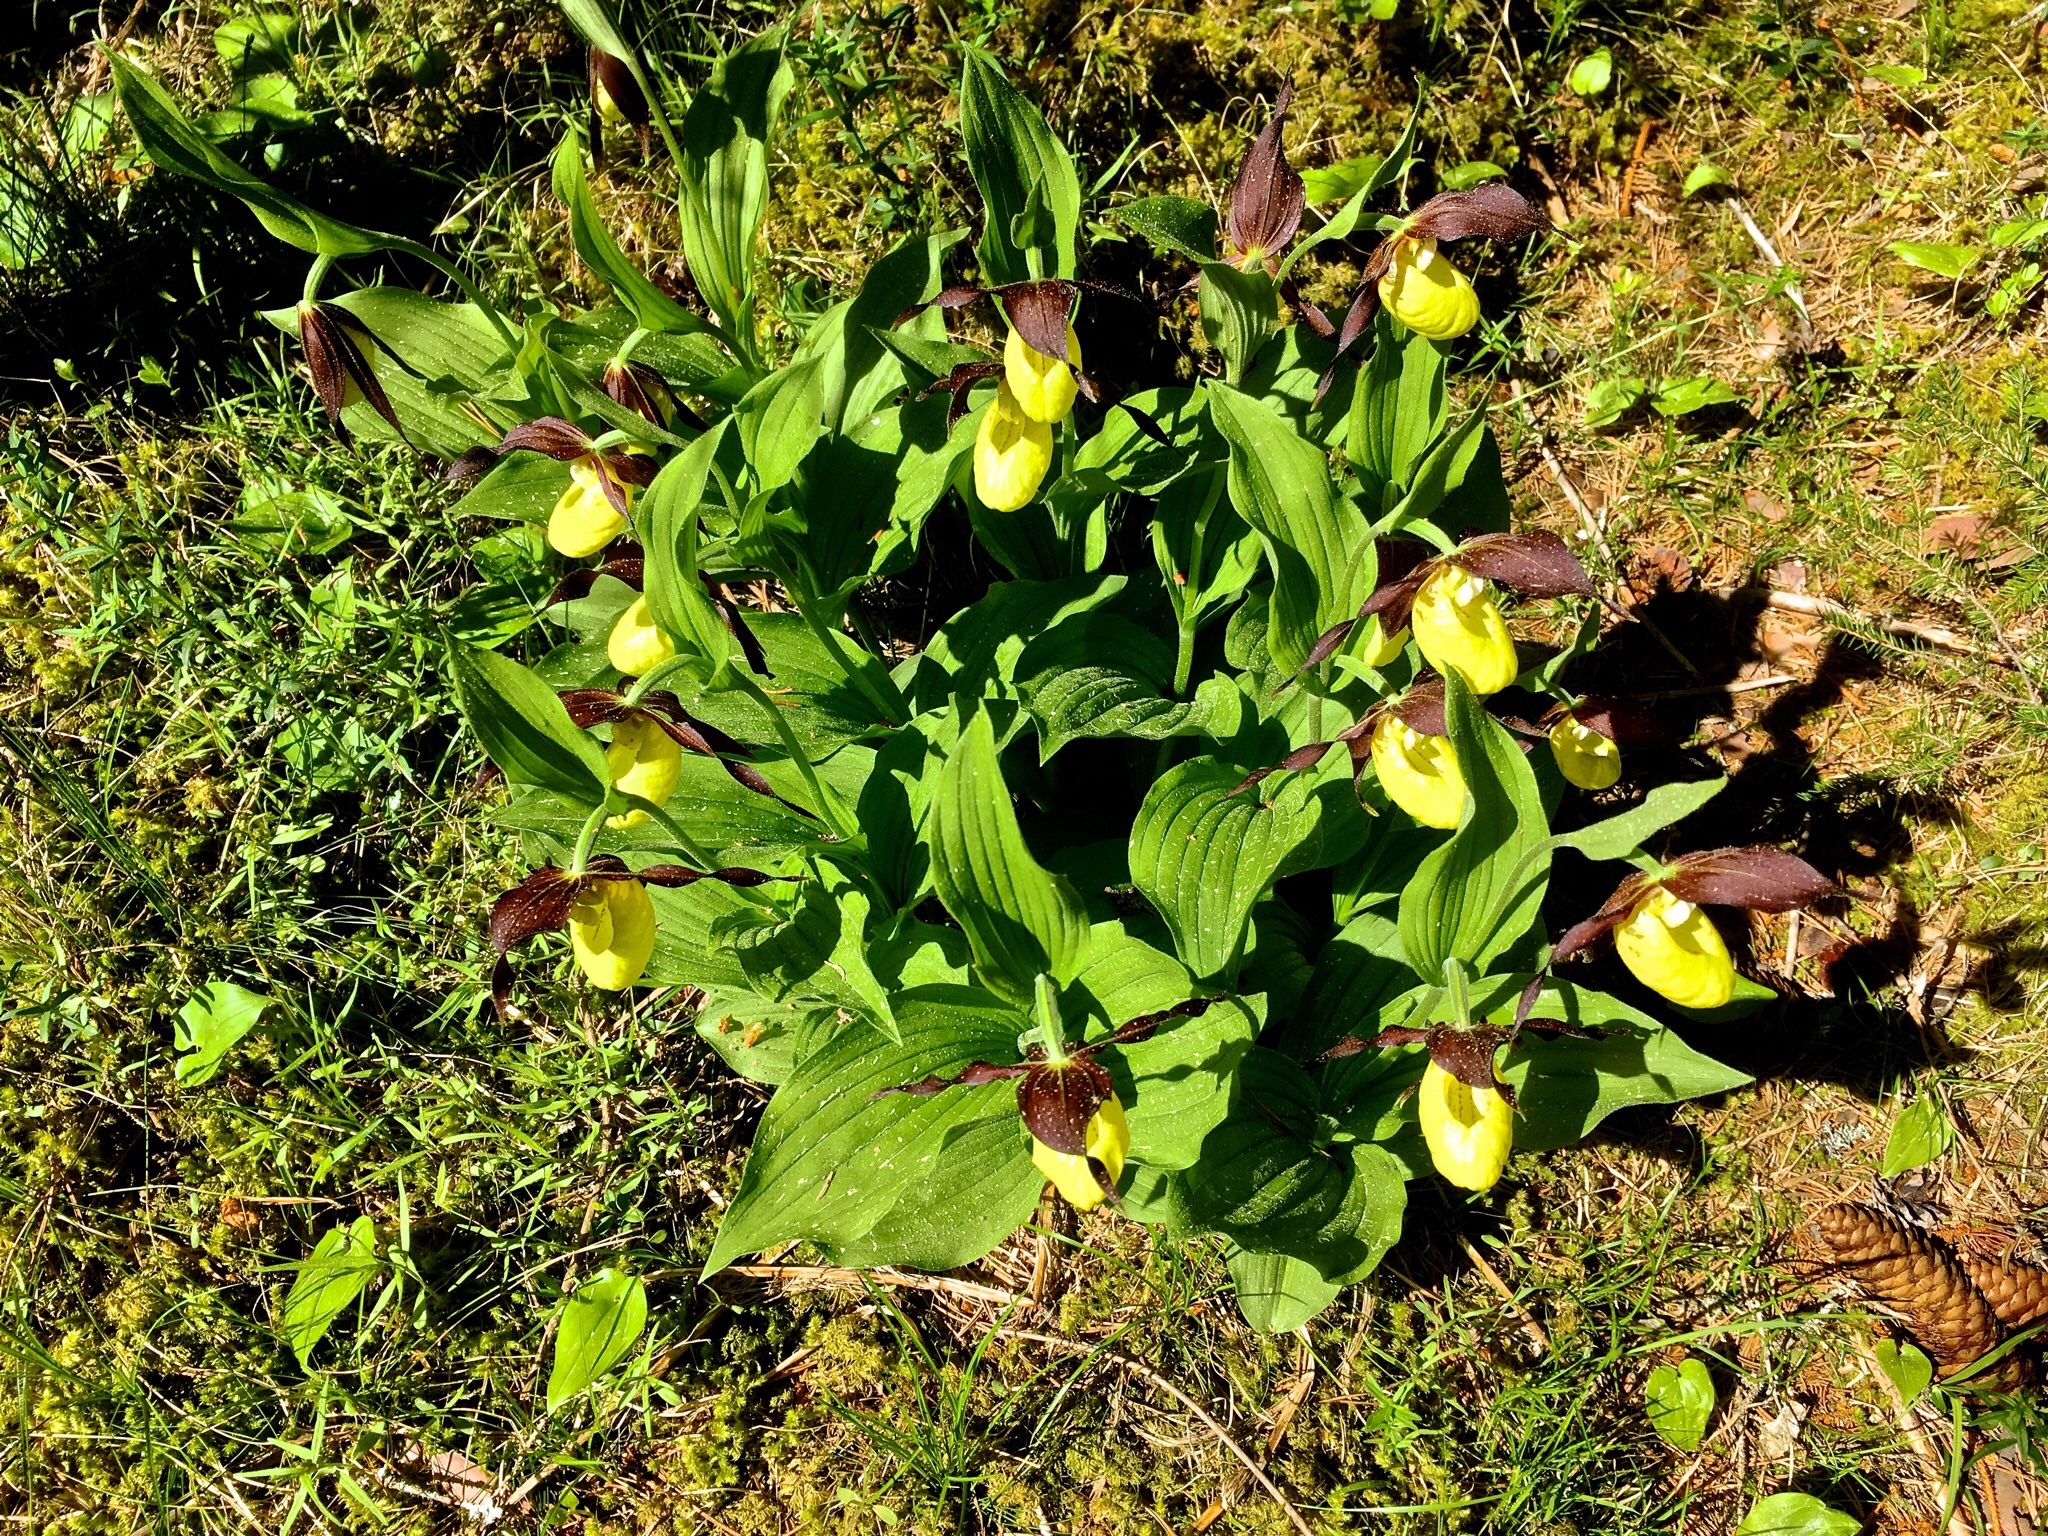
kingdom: Plantae
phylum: Tracheophyta
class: Liliopsida
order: Asparagales
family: Orchidaceae
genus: Cypripedium
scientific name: Cypripedium calceolus
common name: Lady's-slipper
